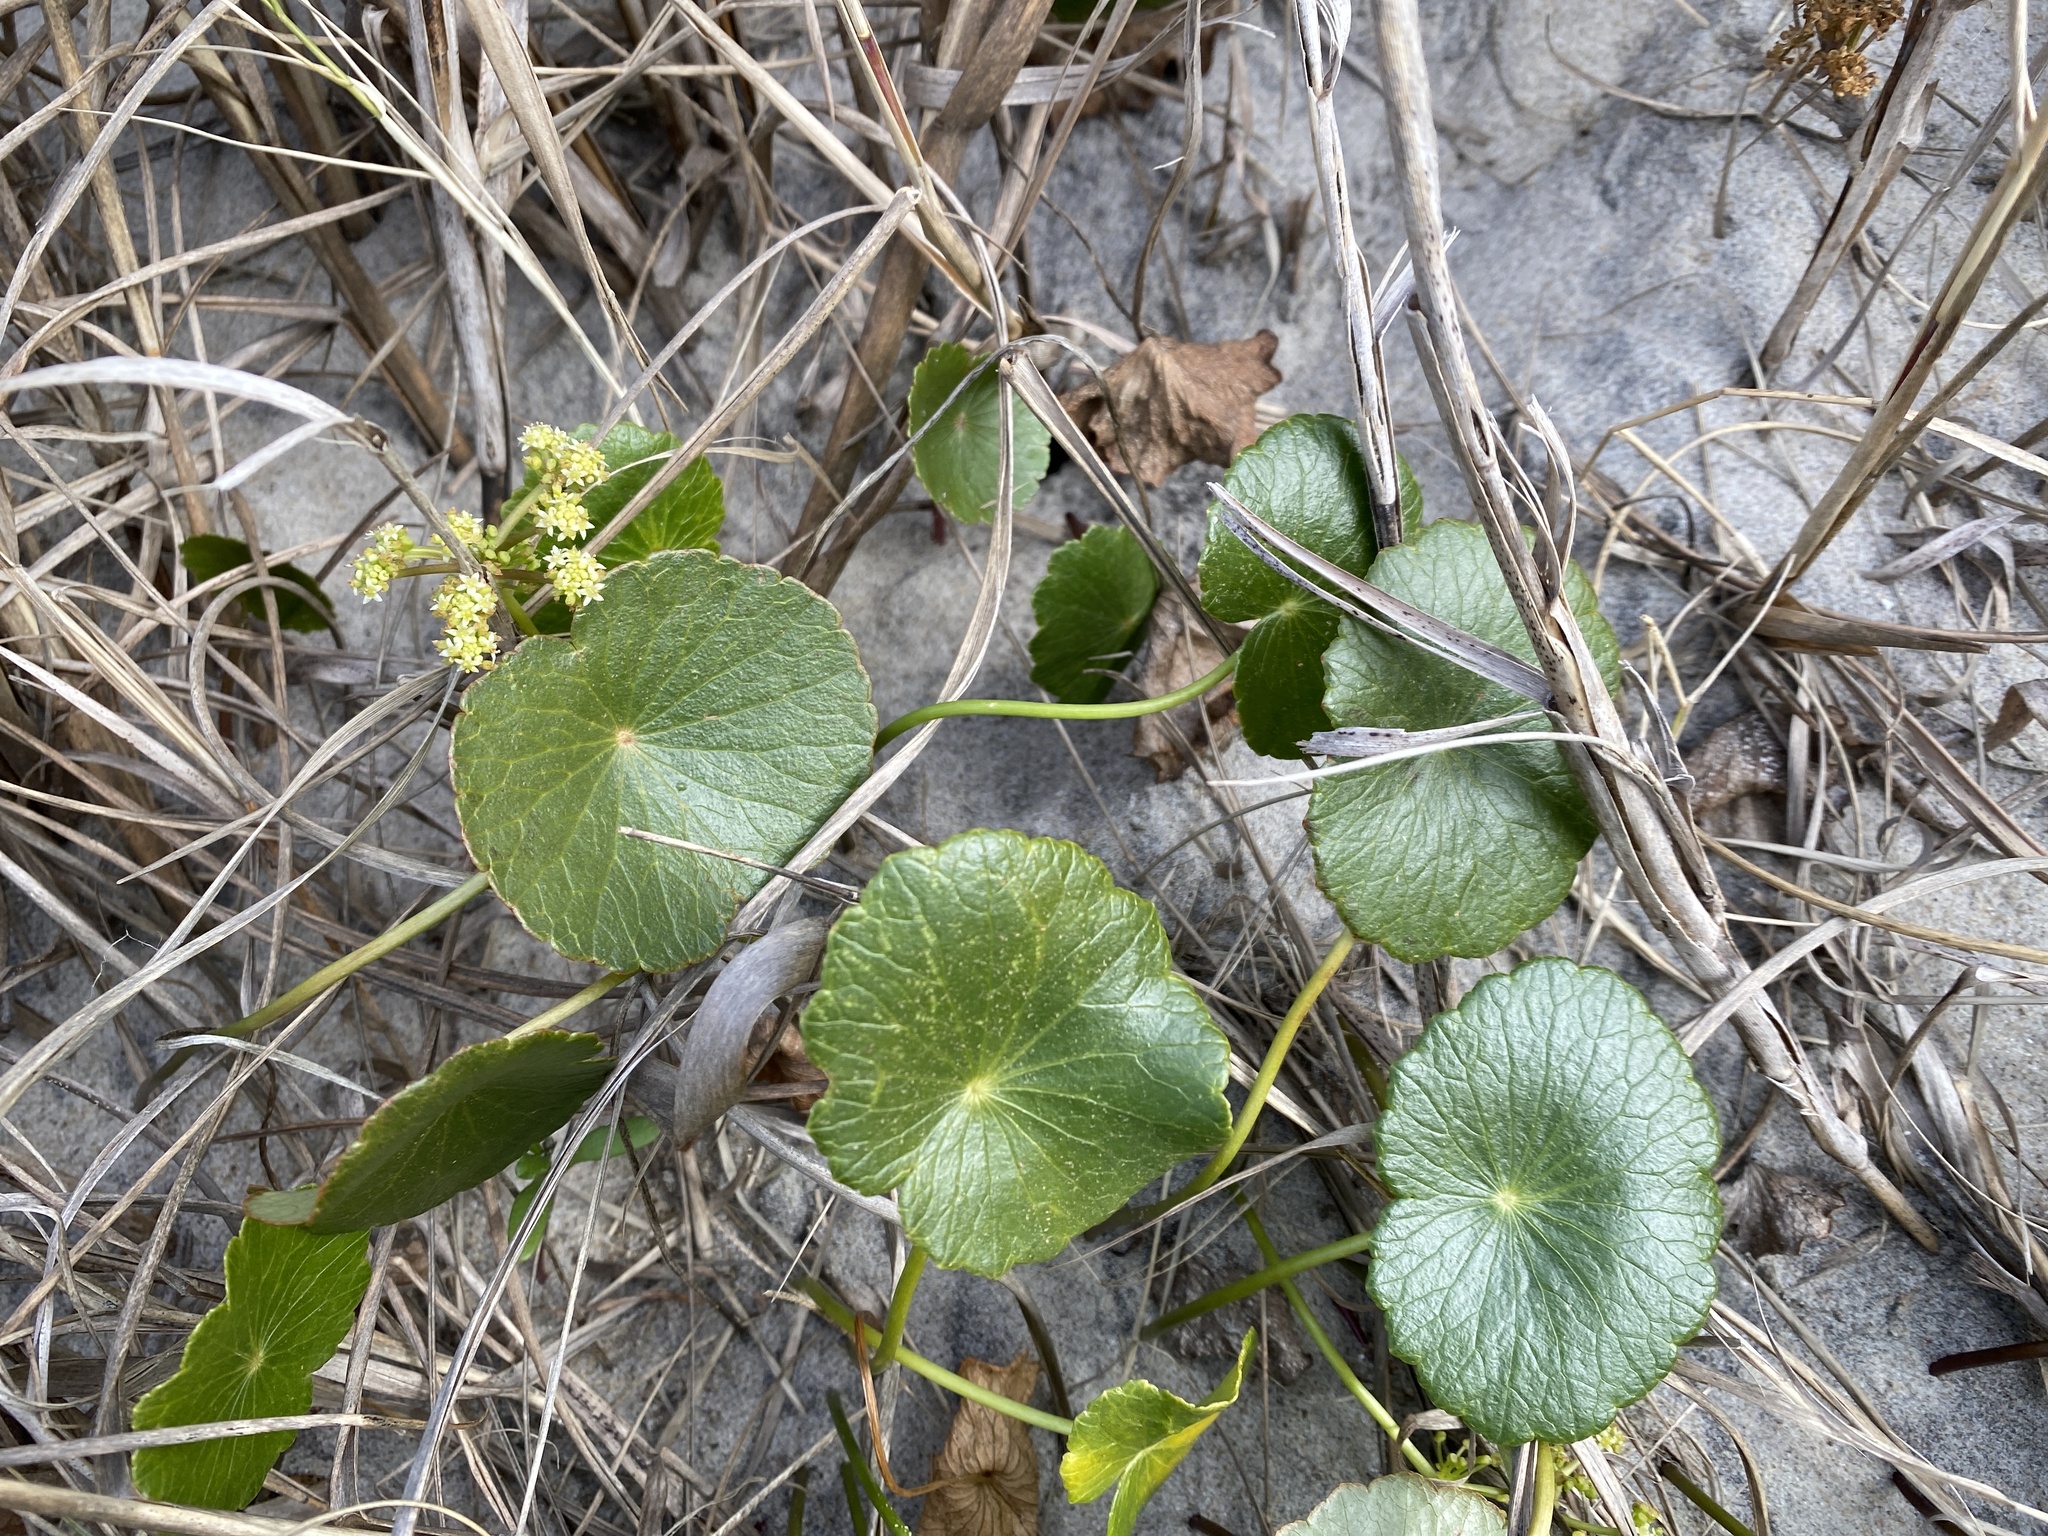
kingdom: Plantae
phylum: Tracheophyta
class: Magnoliopsida
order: Apiales
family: Araliaceae
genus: Hydrocotyle
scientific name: Hydrocotyle bonariensis
